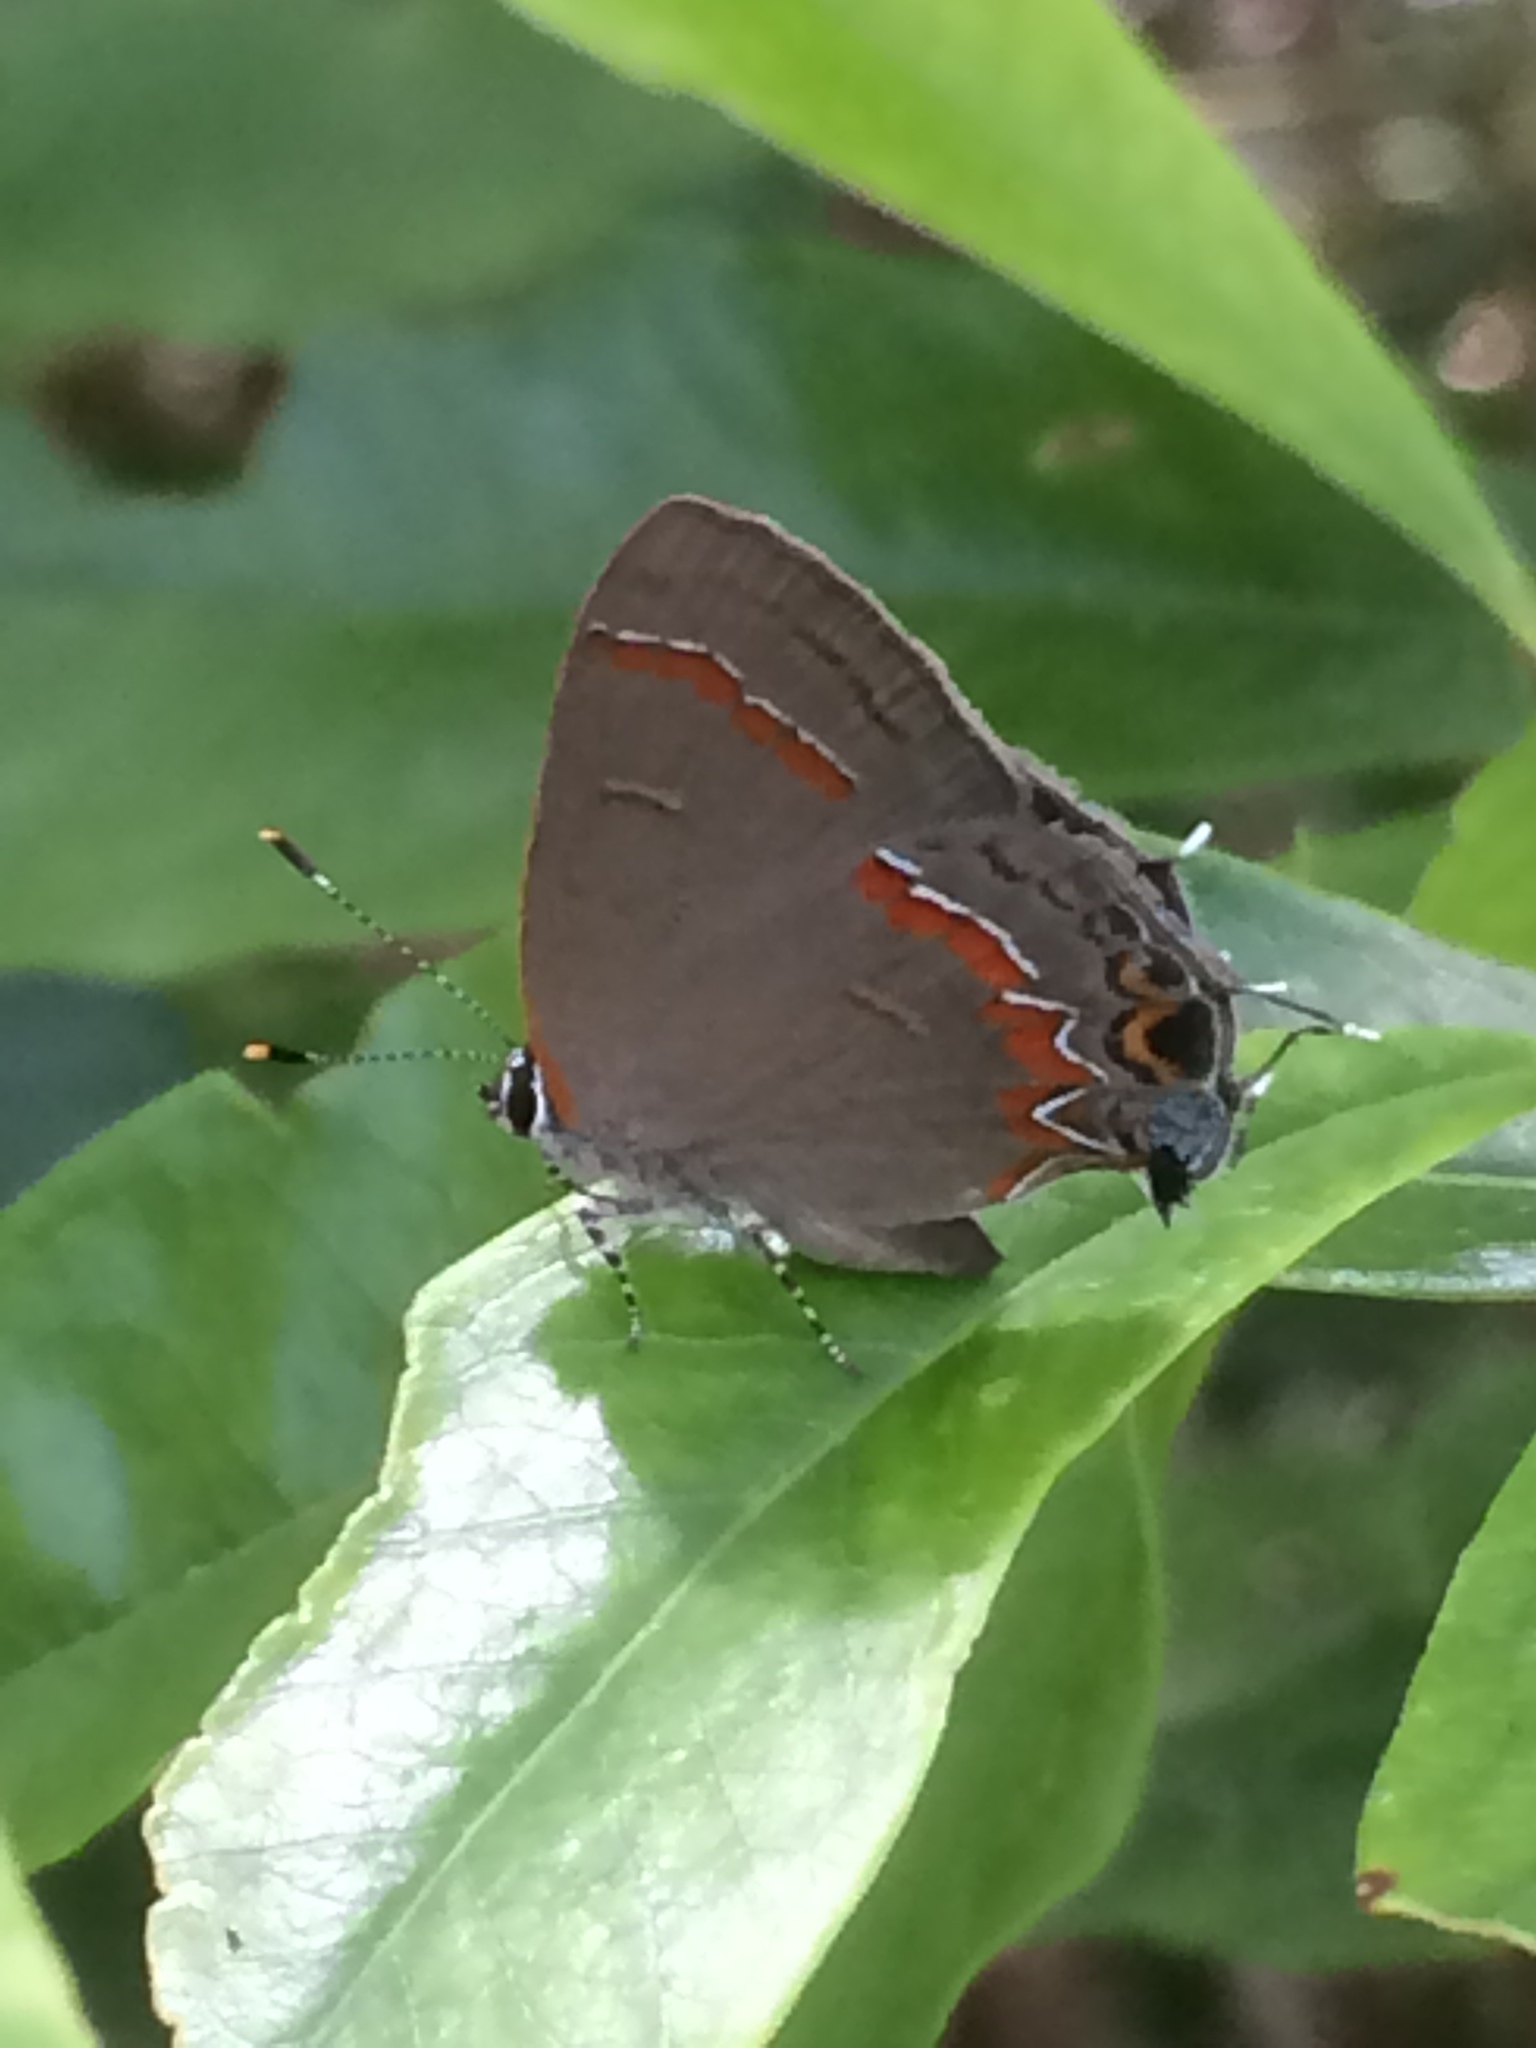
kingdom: Animalia
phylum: Arthropoda
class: Insecta
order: Lepidoptera
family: Lycaenidae
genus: Calycopis
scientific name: Calycopis cecrops
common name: Red-banded hairstreak
